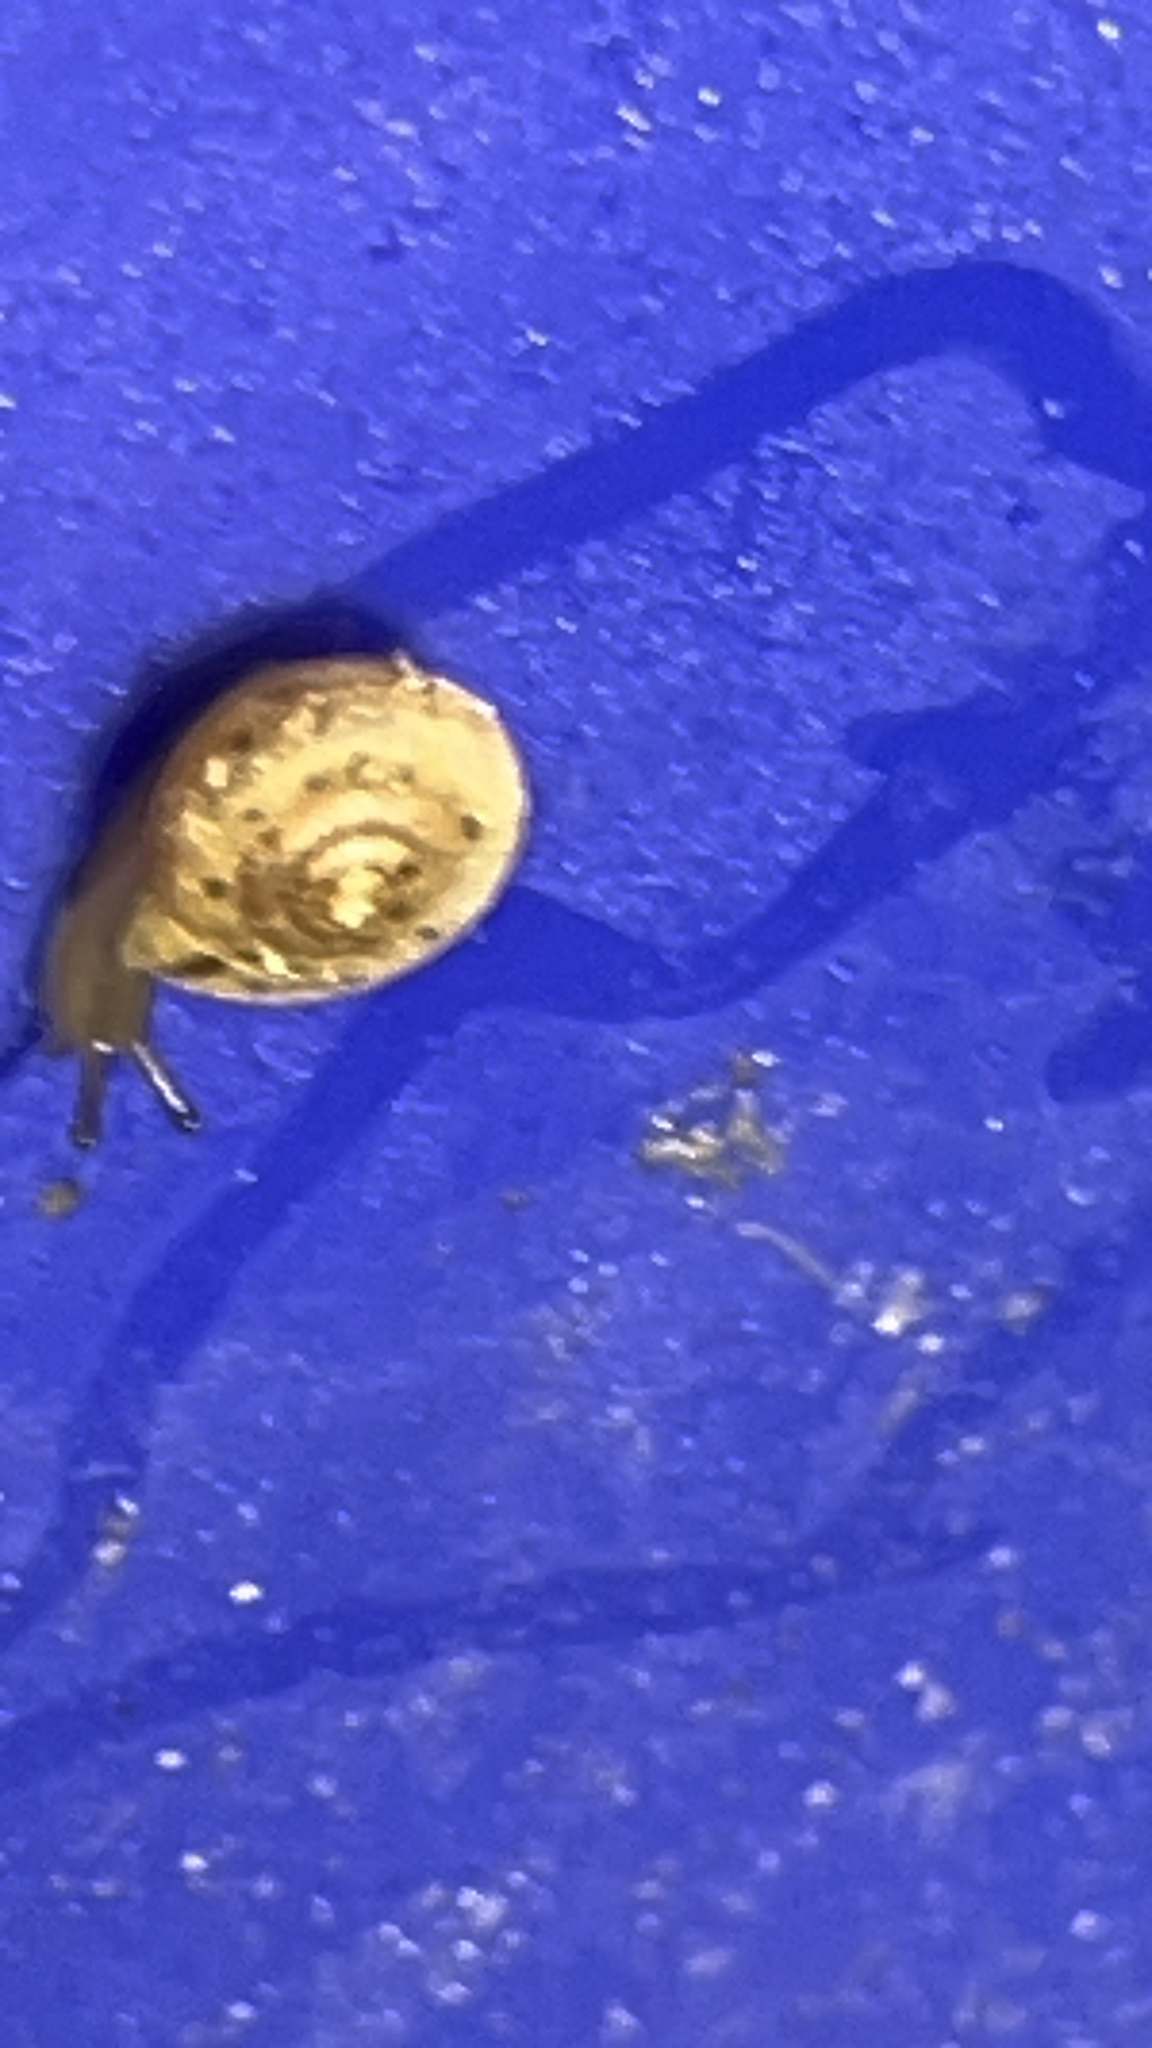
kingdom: Animalia
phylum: Mollusca
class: Gastropoda
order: Stylommatophora
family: Polygyridae
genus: Polygyra
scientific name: Polygyra cereolus
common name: Southern flatcone snail
